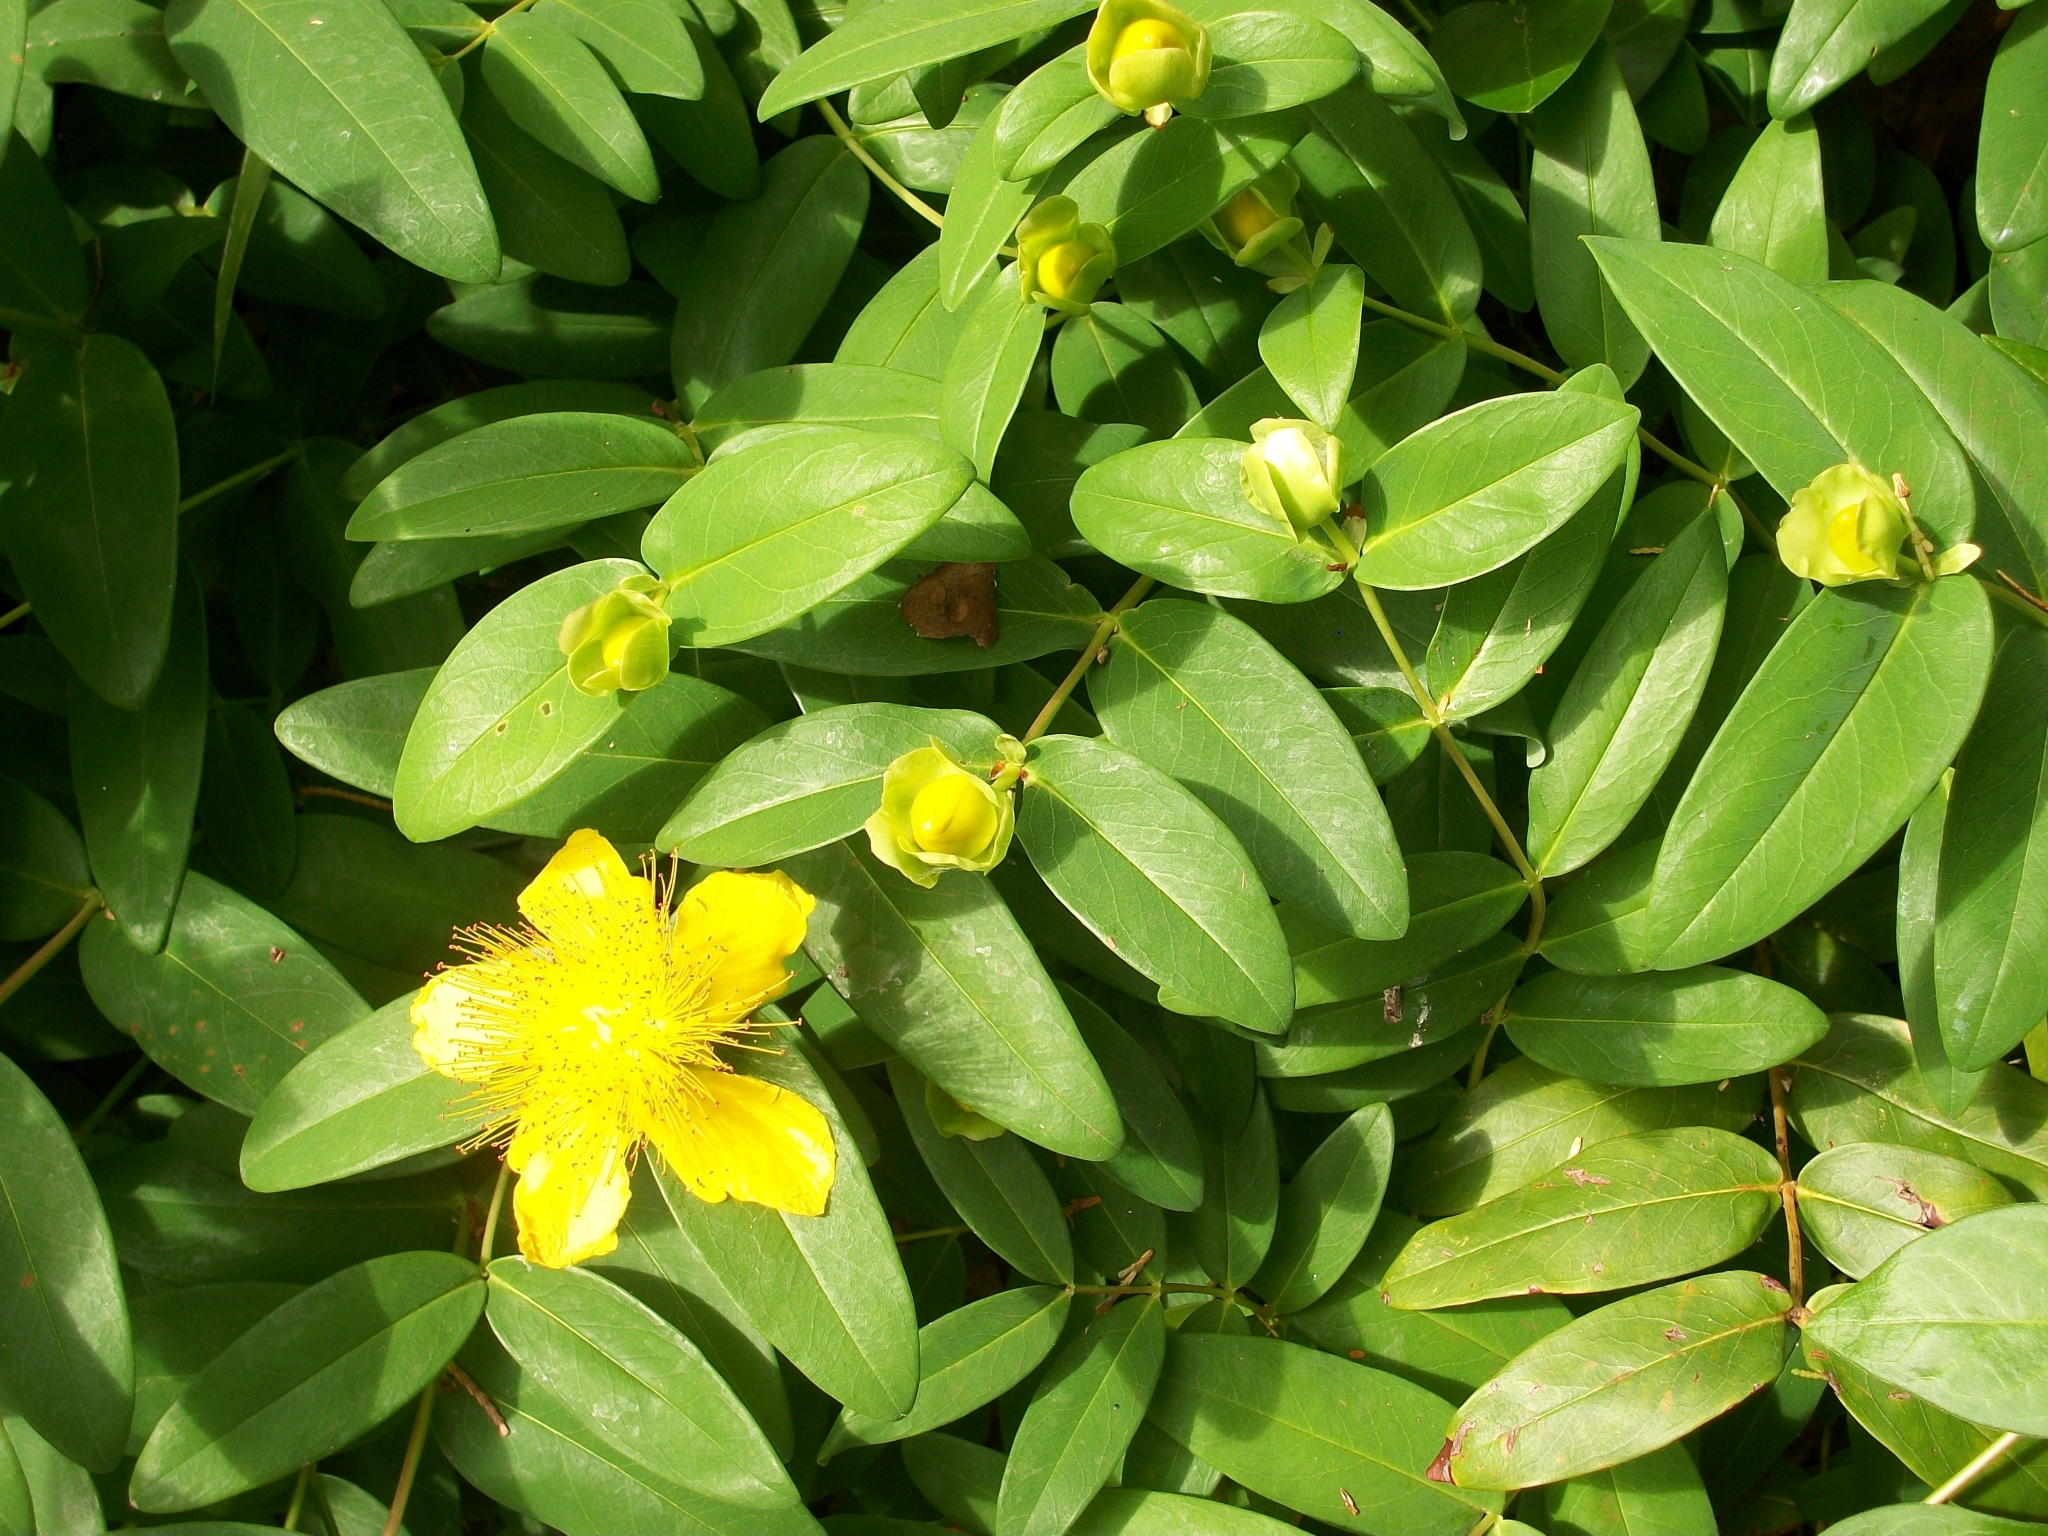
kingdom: Plantae
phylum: Tracheophyta
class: Magnoliopsida
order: Malpighiales
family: Hypericaceae
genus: Hypericum
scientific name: Hypericum calycinum
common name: Rose-of-sharon
